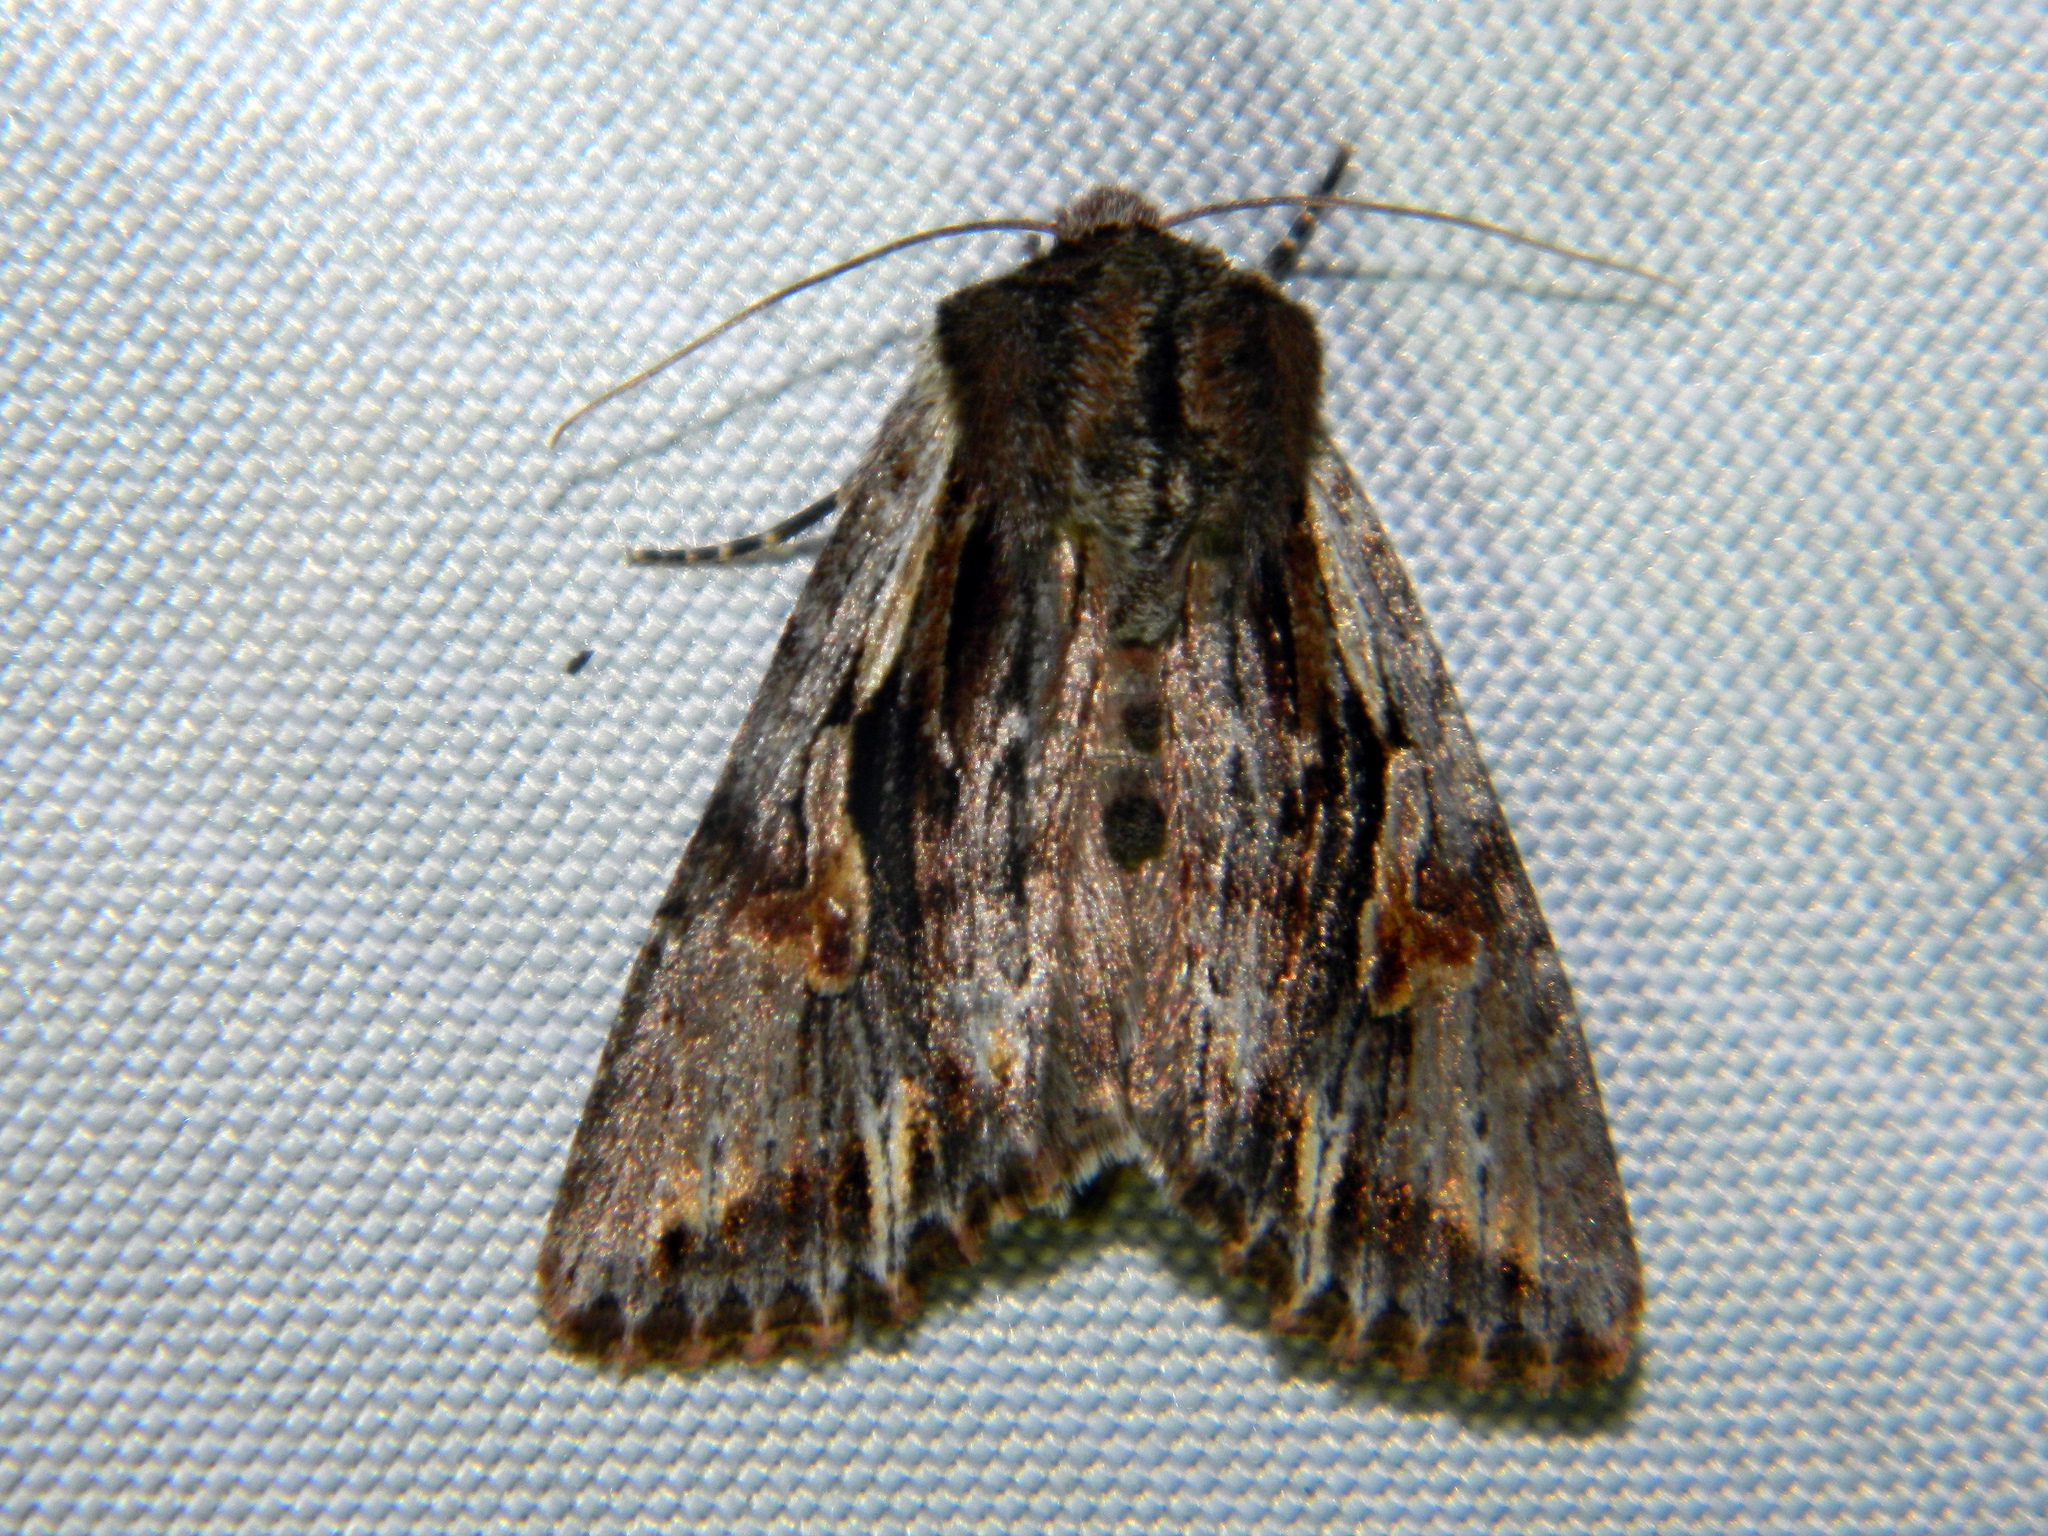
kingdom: Animalia
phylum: Arthropoda
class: Insecta
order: Lepidoptera
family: Noctuidae
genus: Achatia
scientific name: Achatia evicta
